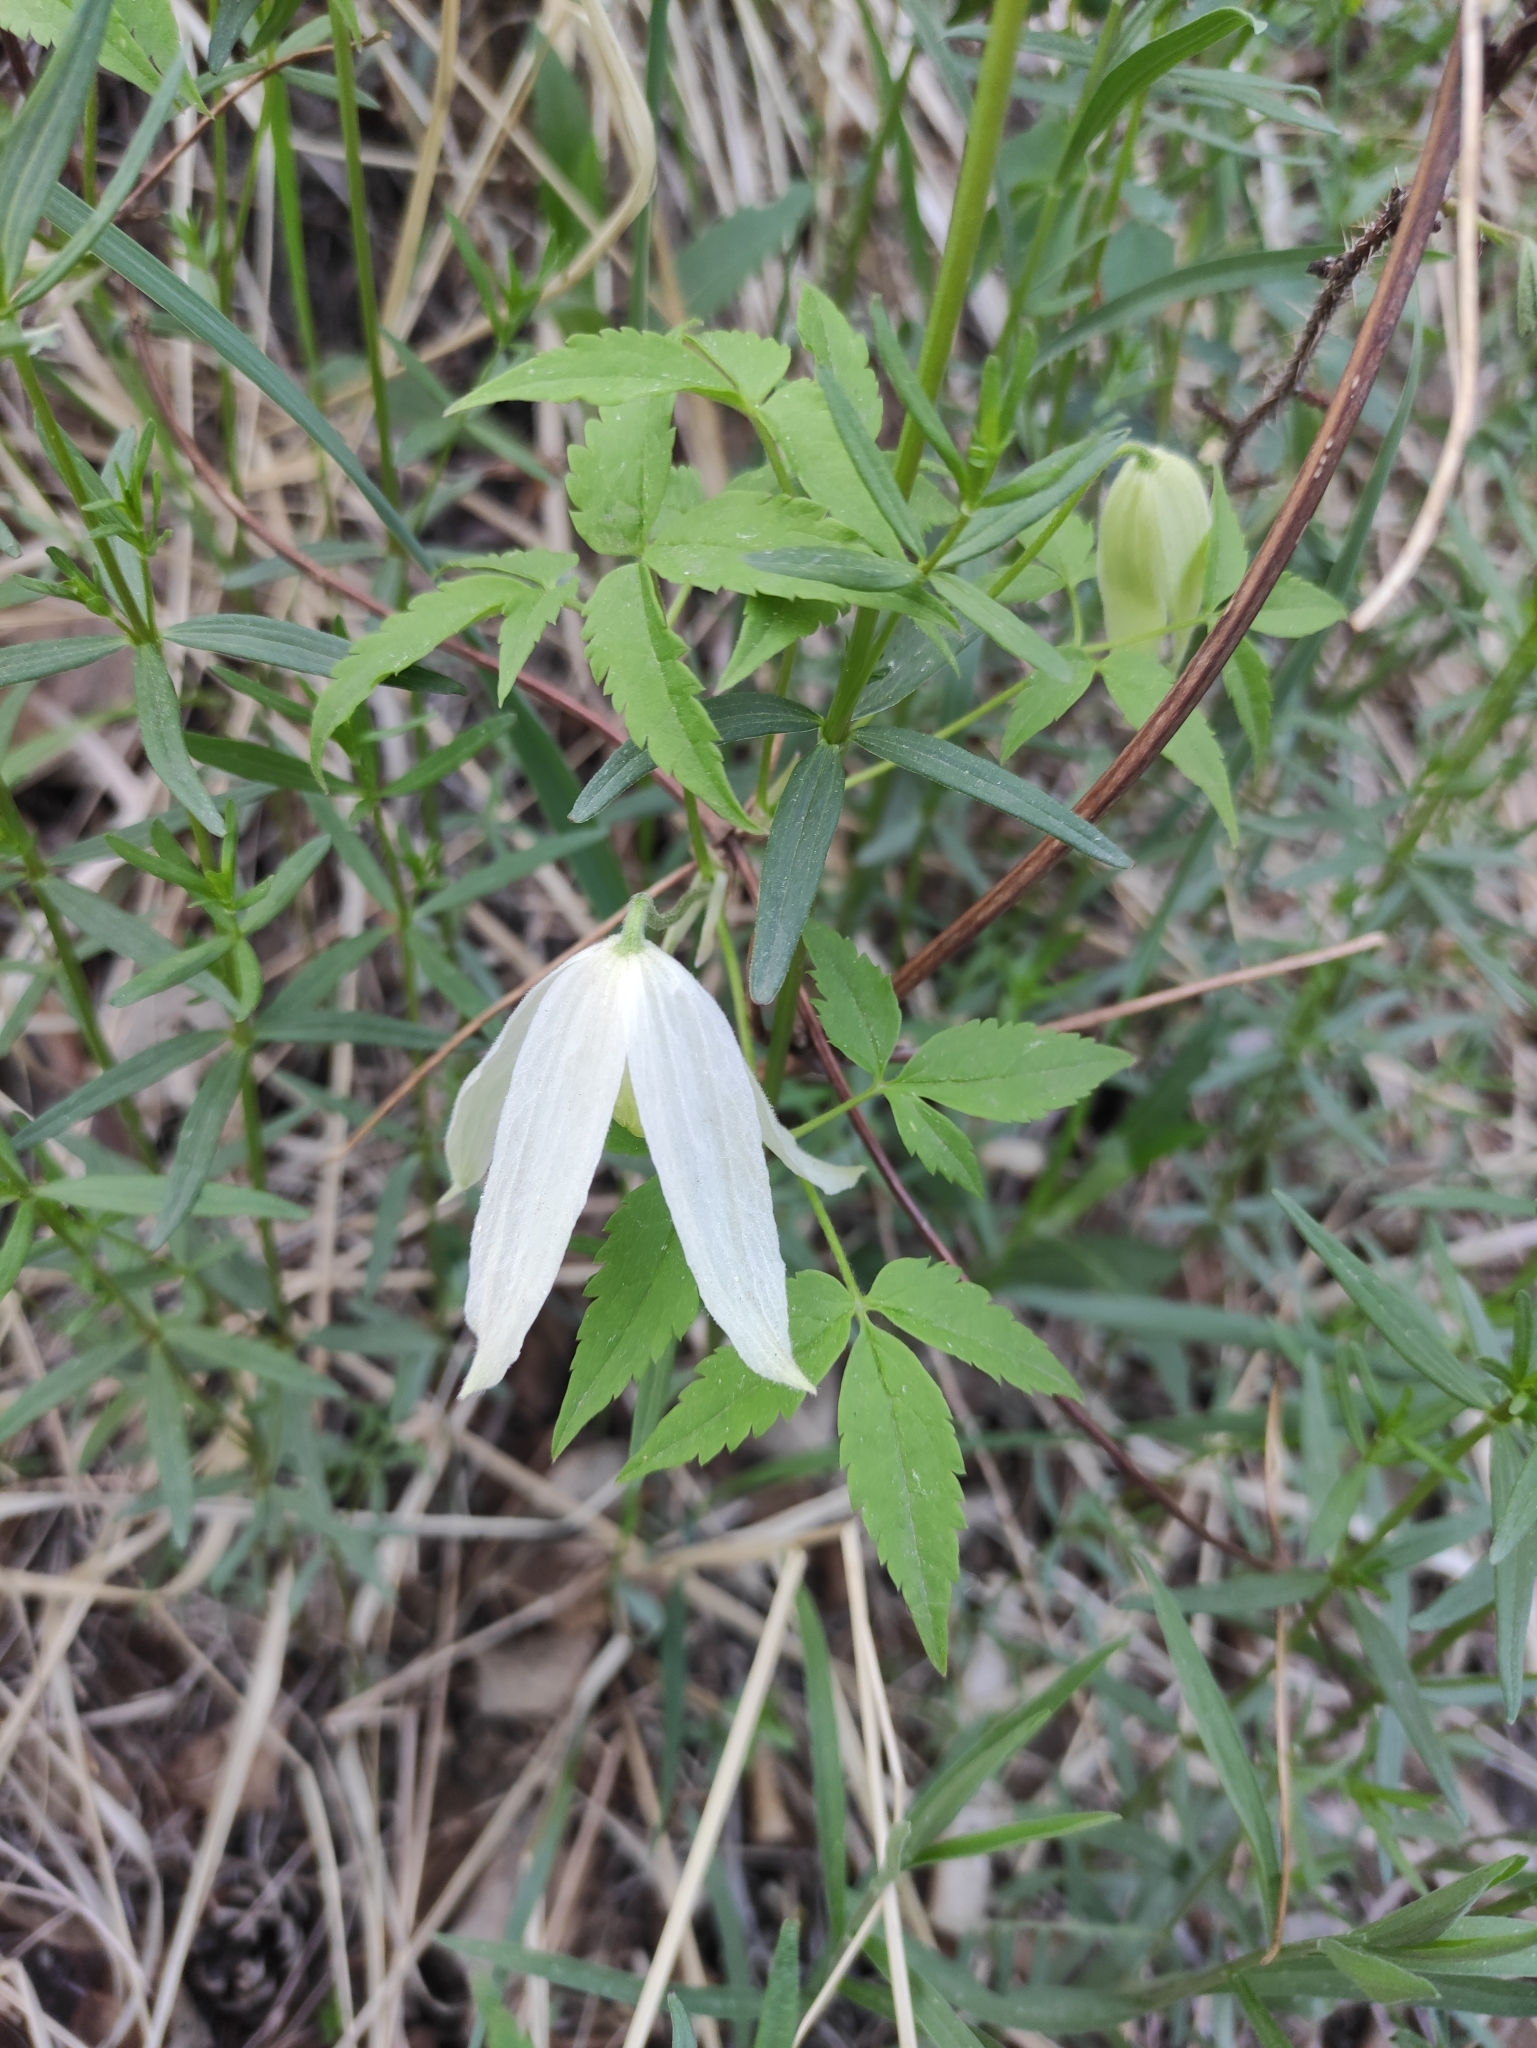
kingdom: Plantae
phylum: Tracheophyta
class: Magnoliopsida
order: Ranunculales
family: Ranunculaceae
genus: Clematis
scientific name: Clematis sibirica
